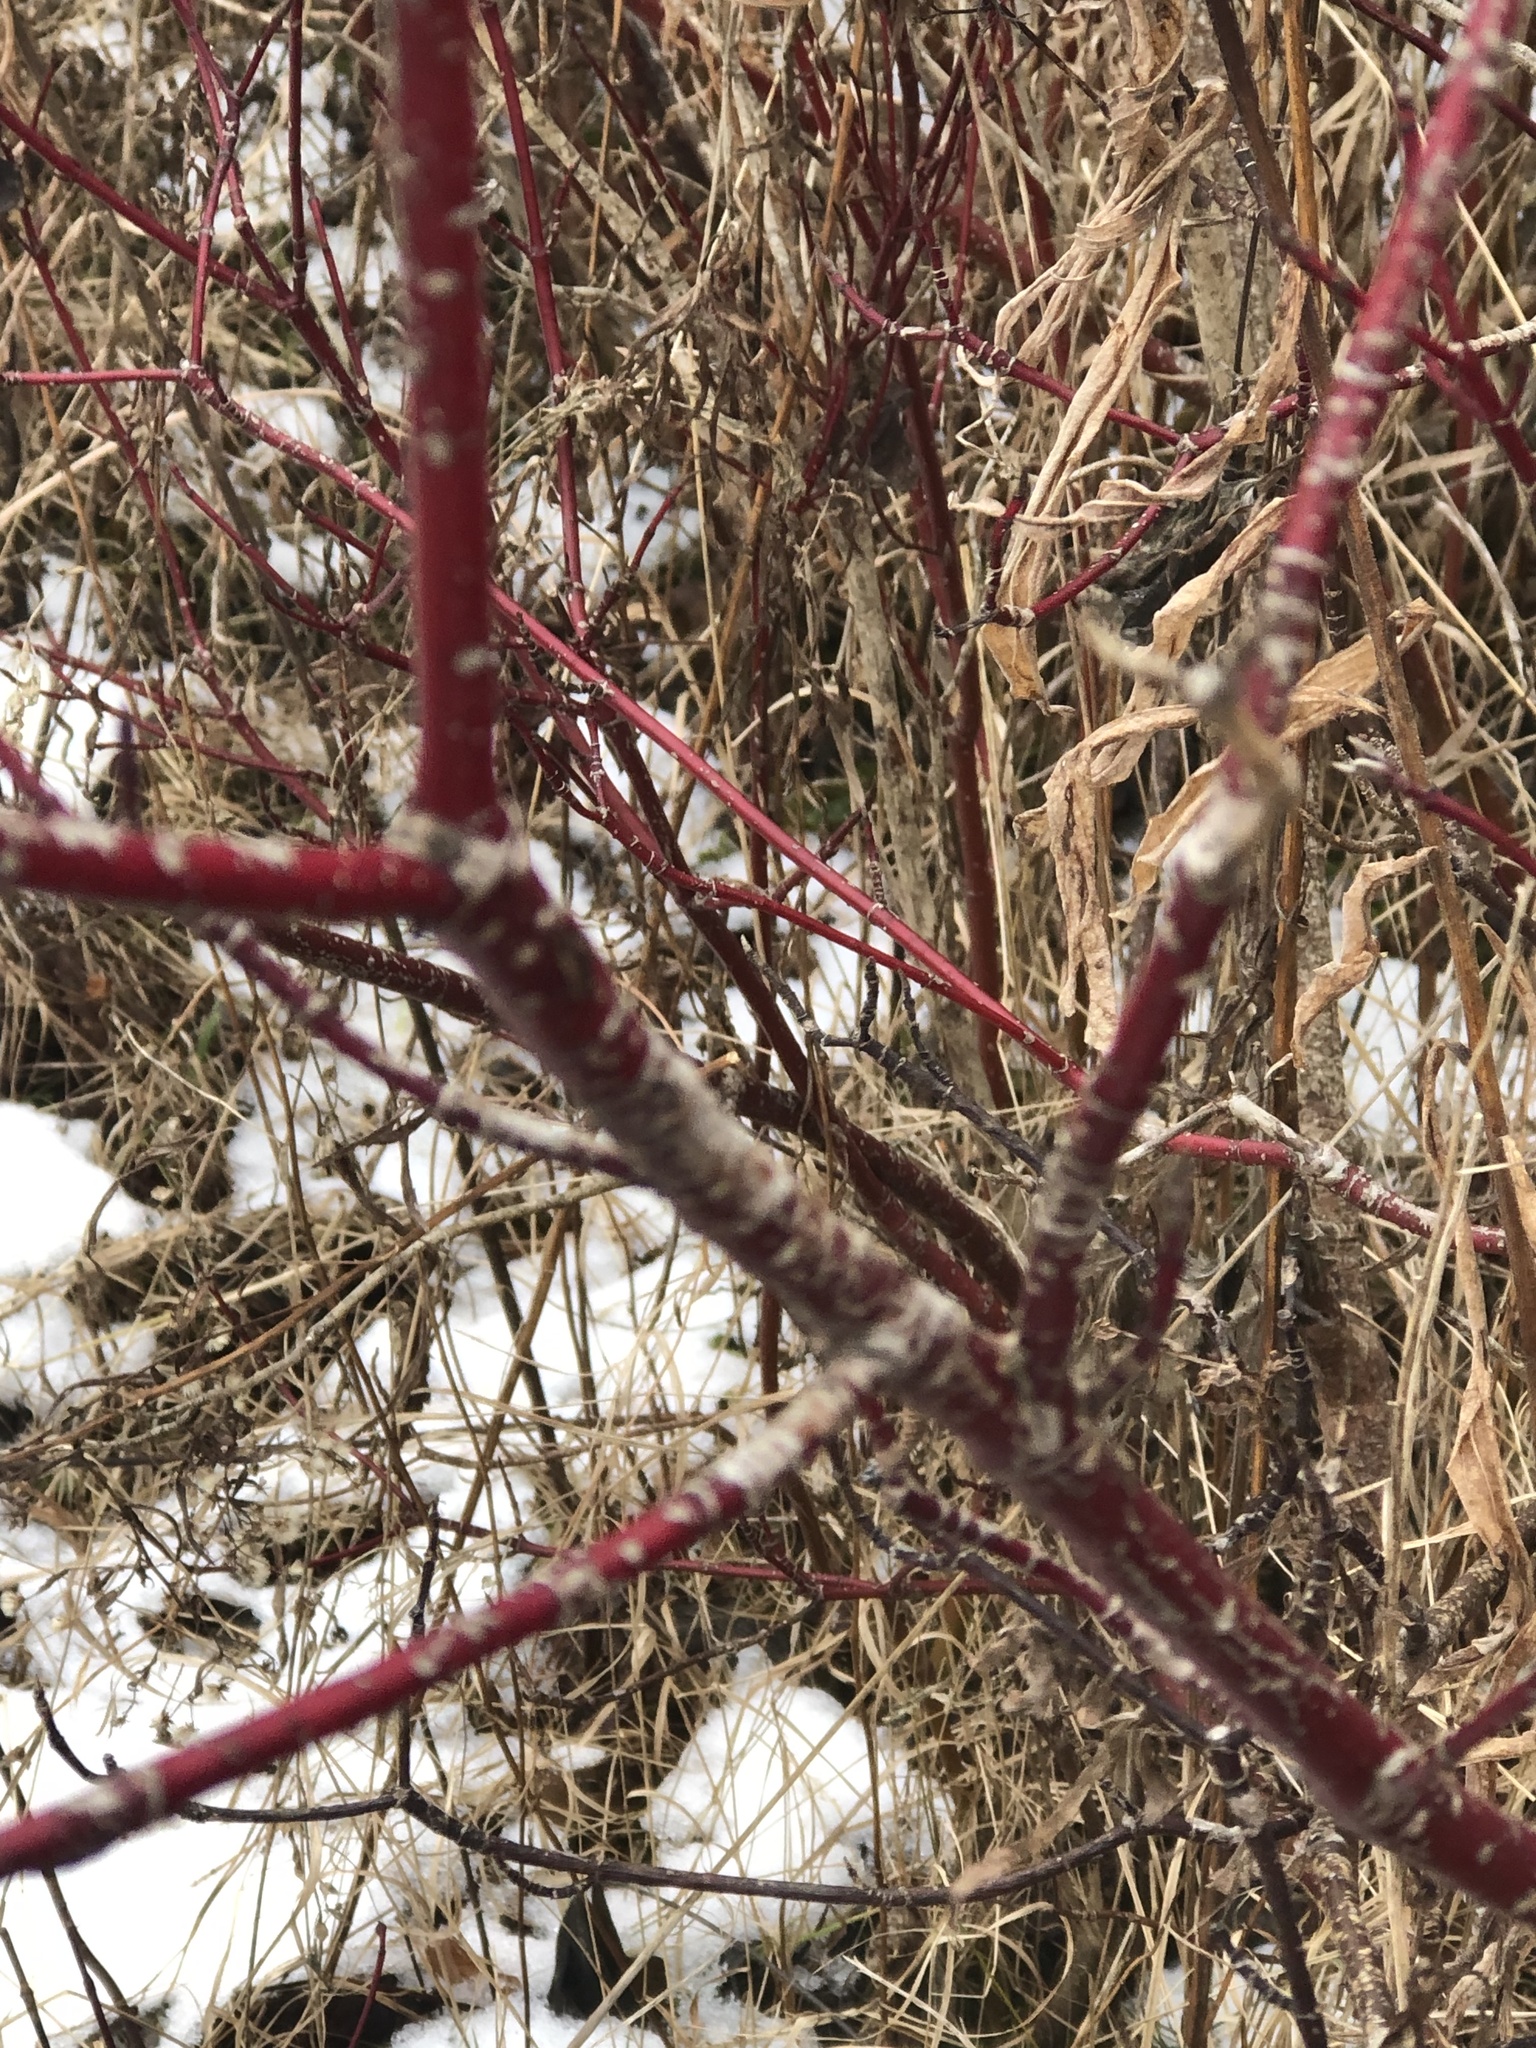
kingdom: Plantae
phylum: Tracheophyta
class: Magnoliopsida
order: Cornales
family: Cornaceae
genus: Cornus
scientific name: Cornus sericea
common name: Red-osier dogwood
